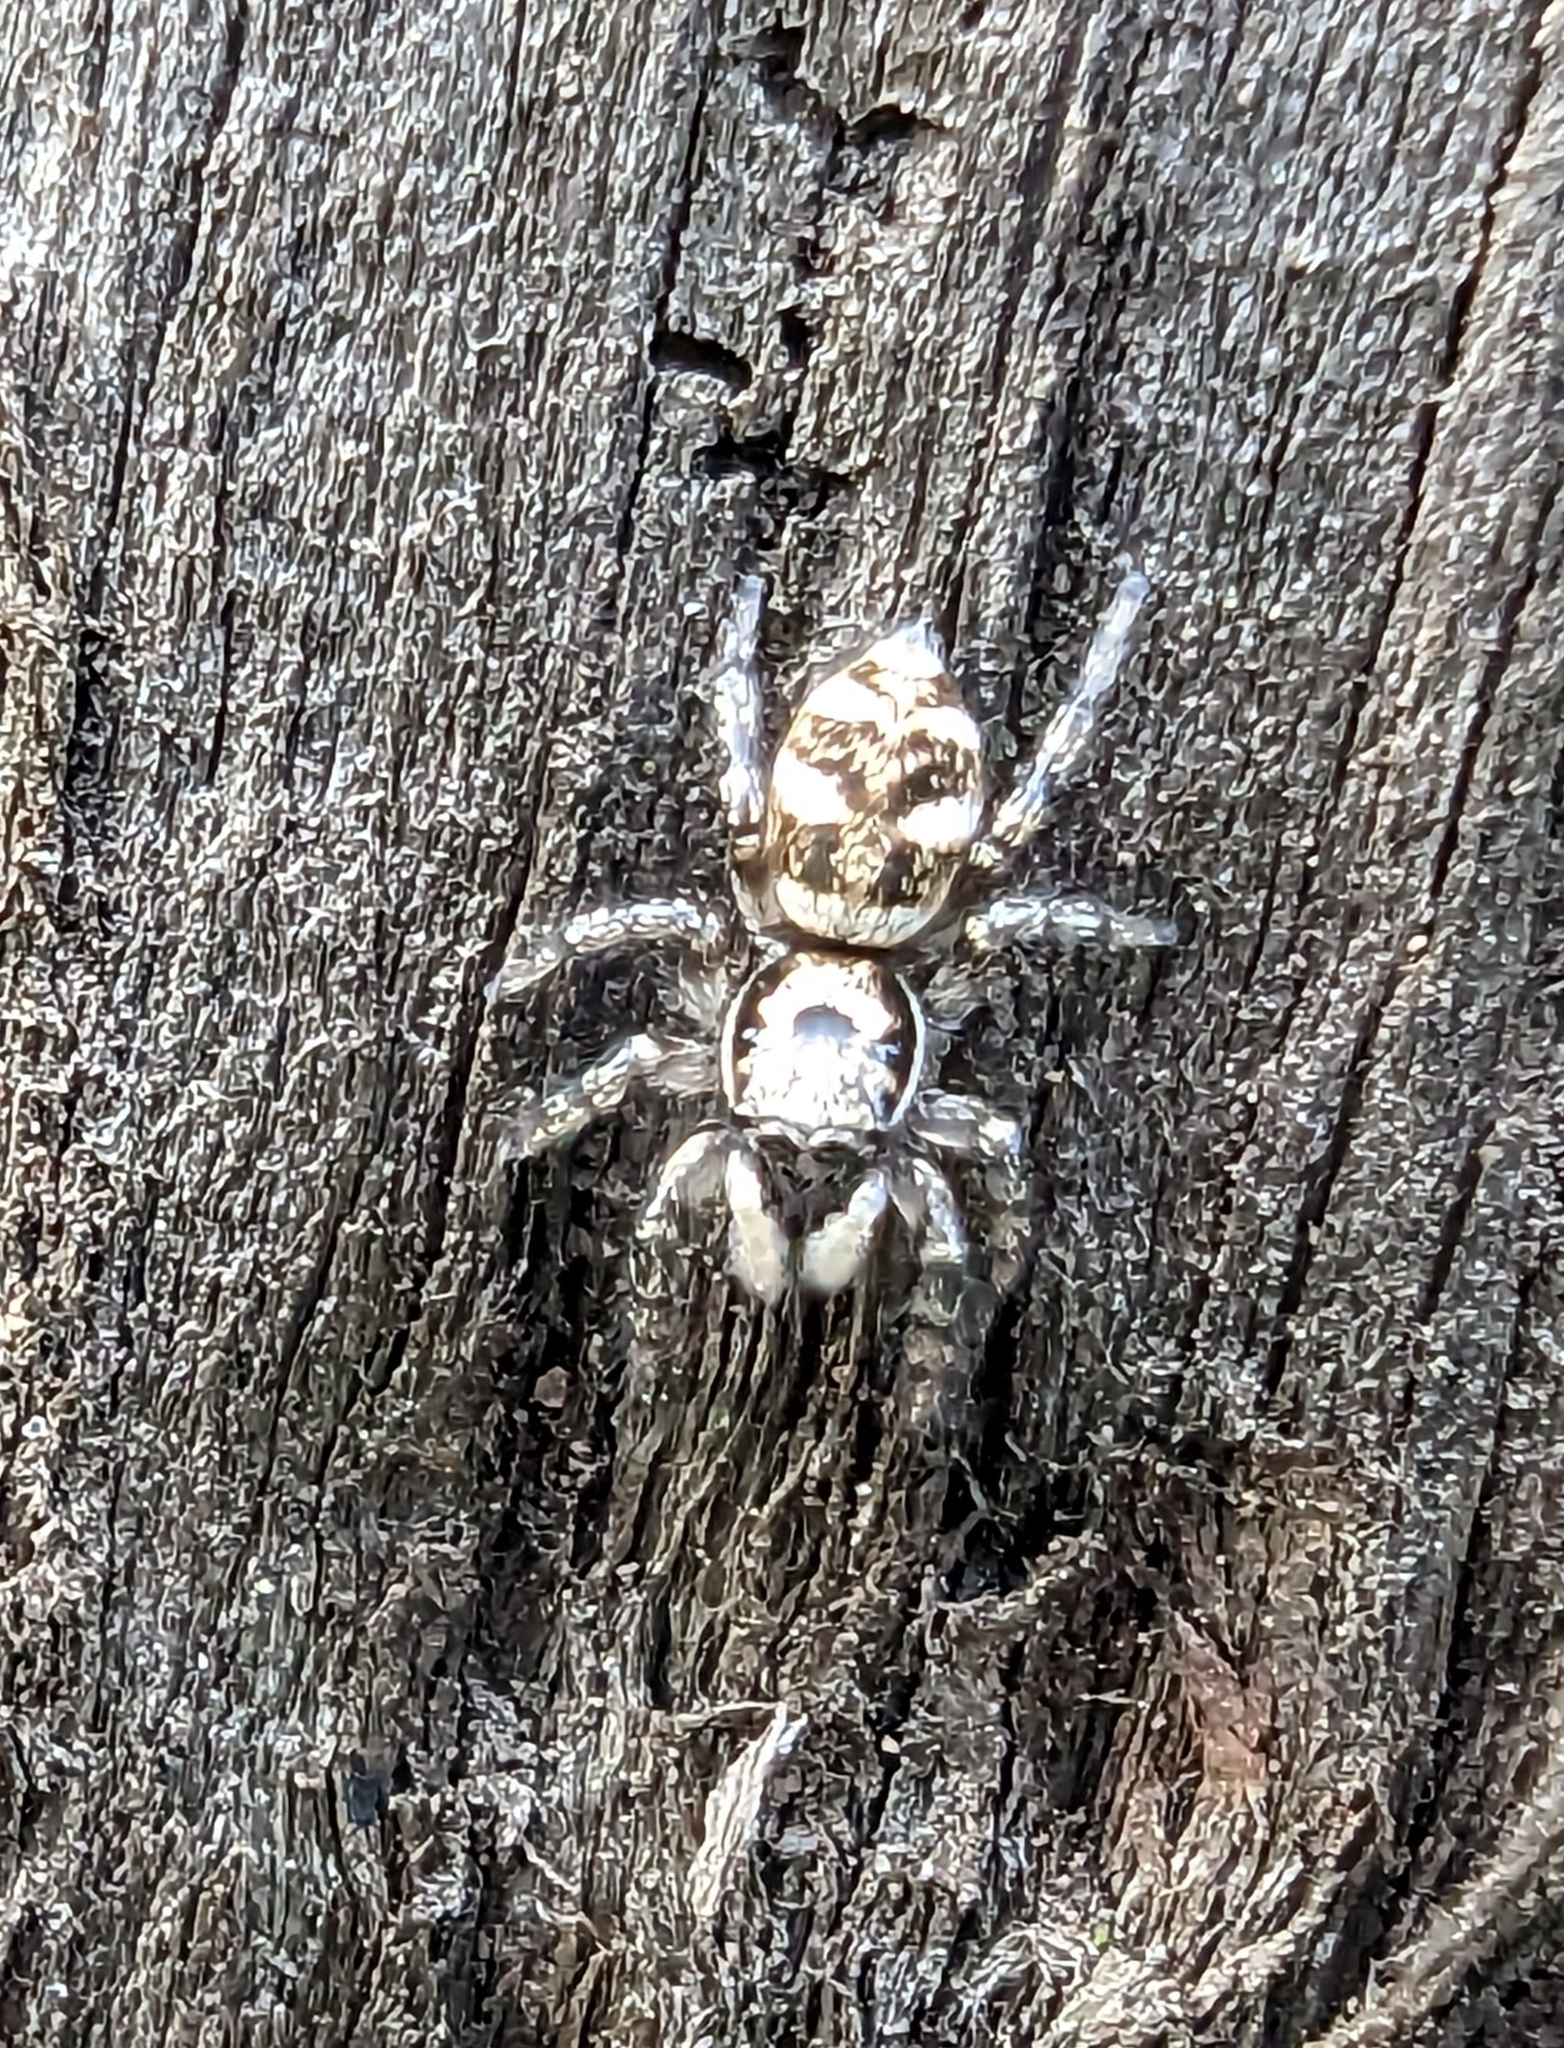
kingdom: Animalia
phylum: Arthropoda
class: Arachnida
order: Araneae
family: Salticidae
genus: Salticus
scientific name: Salticus scenicus
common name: Zebra jumper
